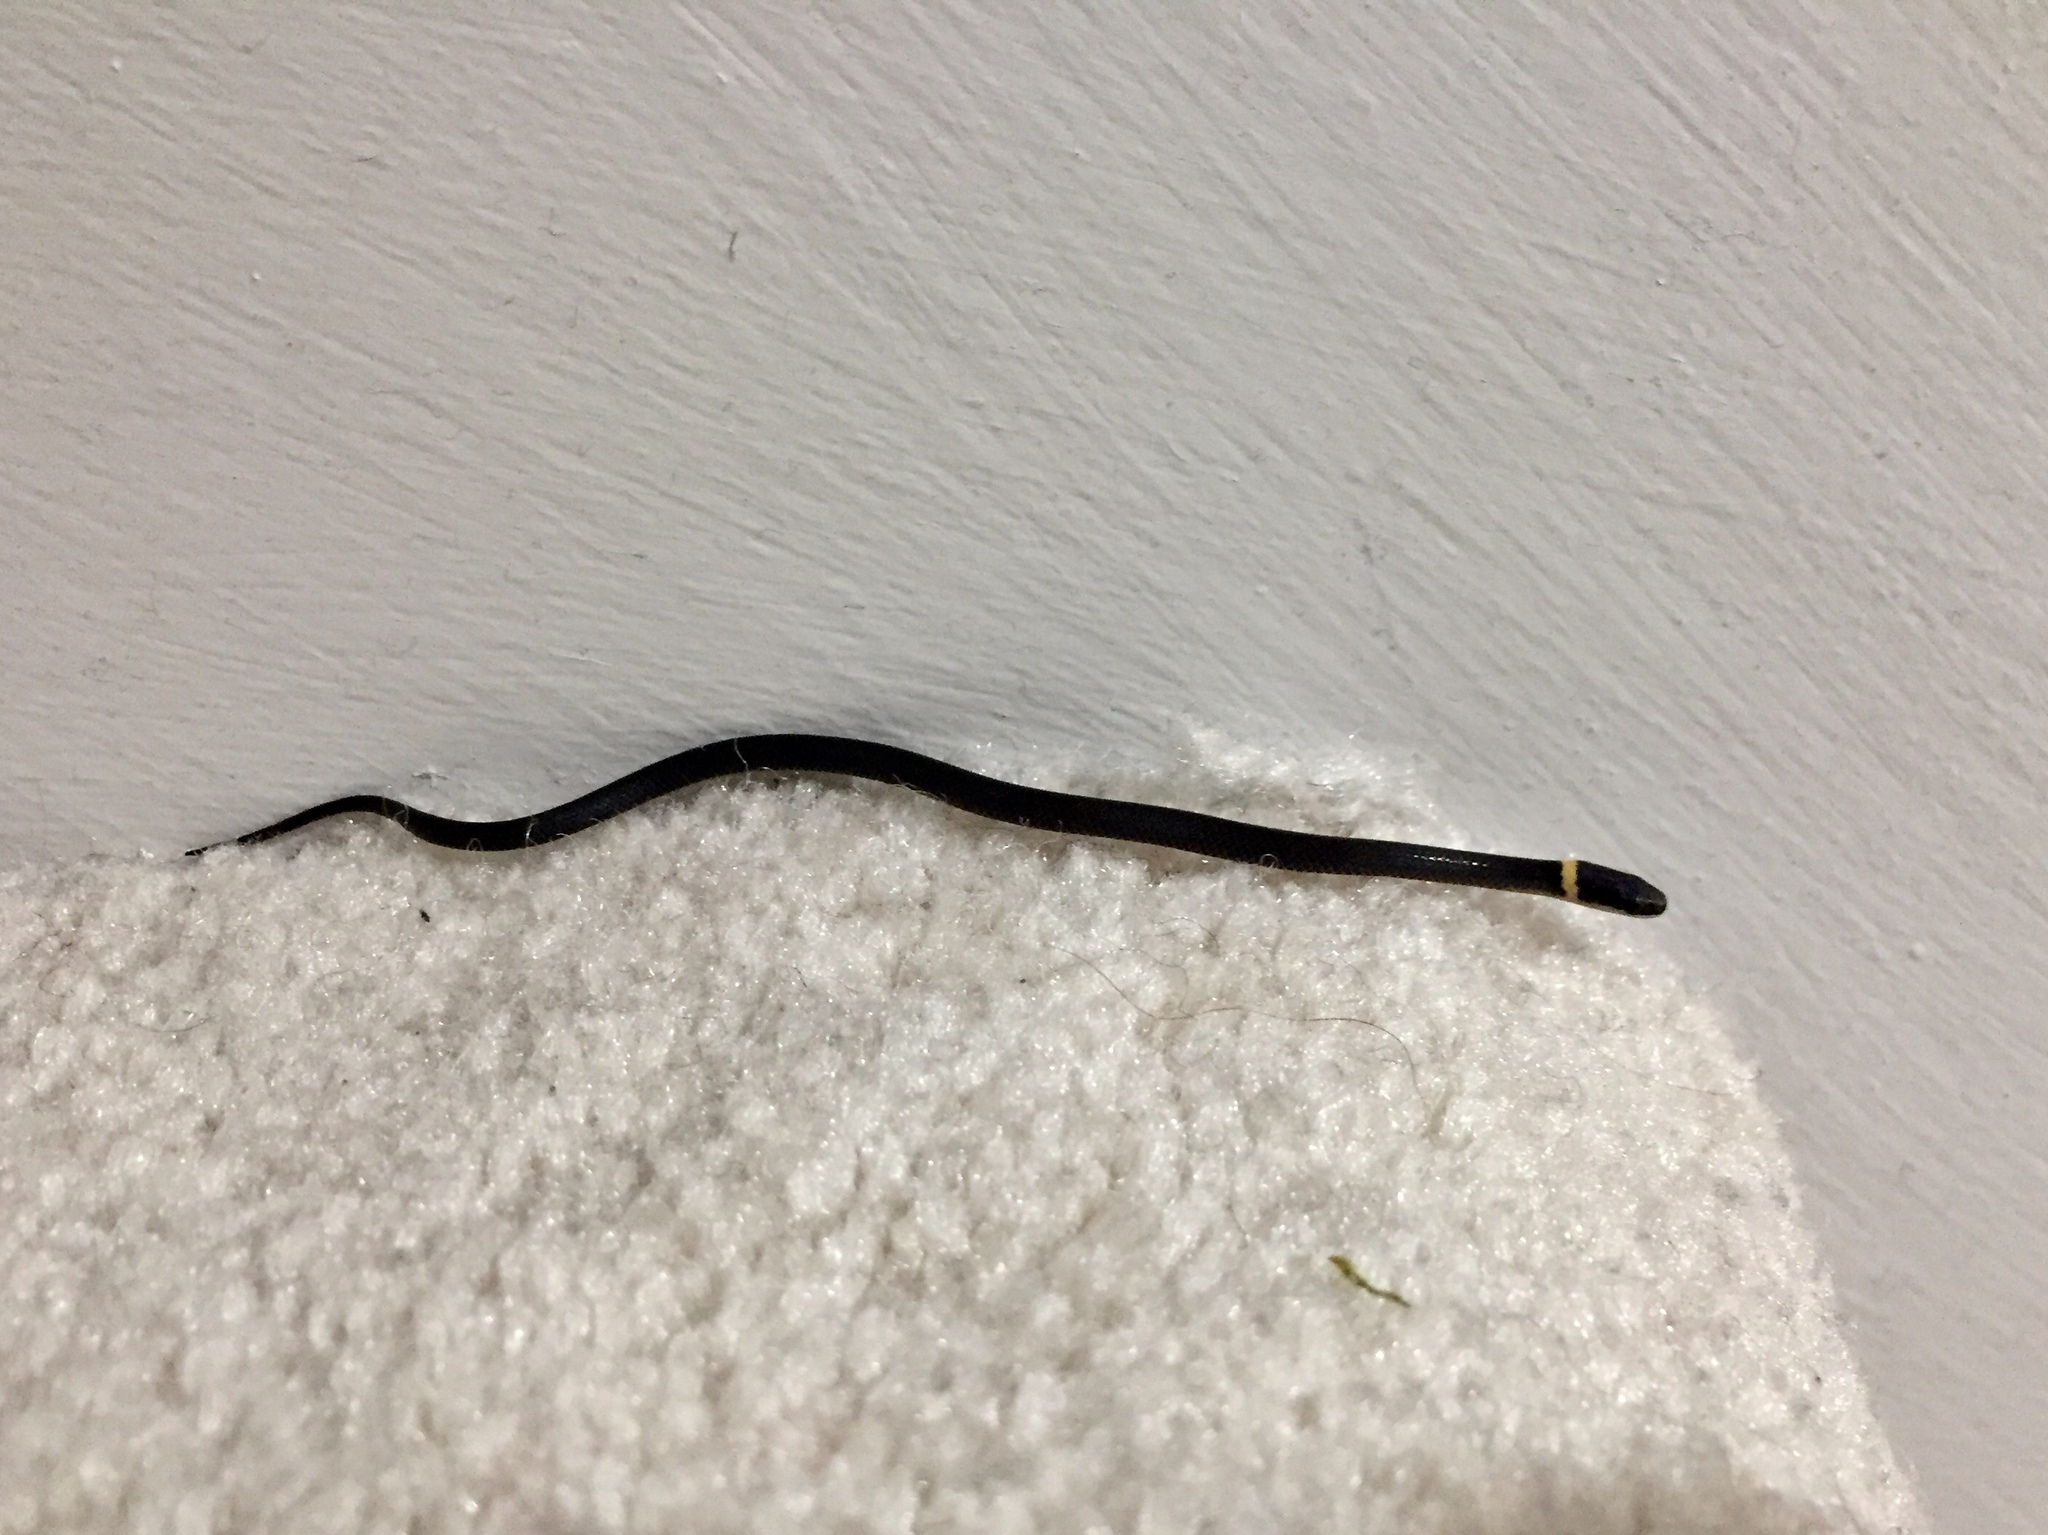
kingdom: Animalia
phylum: Chordata
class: Squamata
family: Colubridae
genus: Diadophis
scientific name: Diadophis punctatus
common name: Ringneck snake
